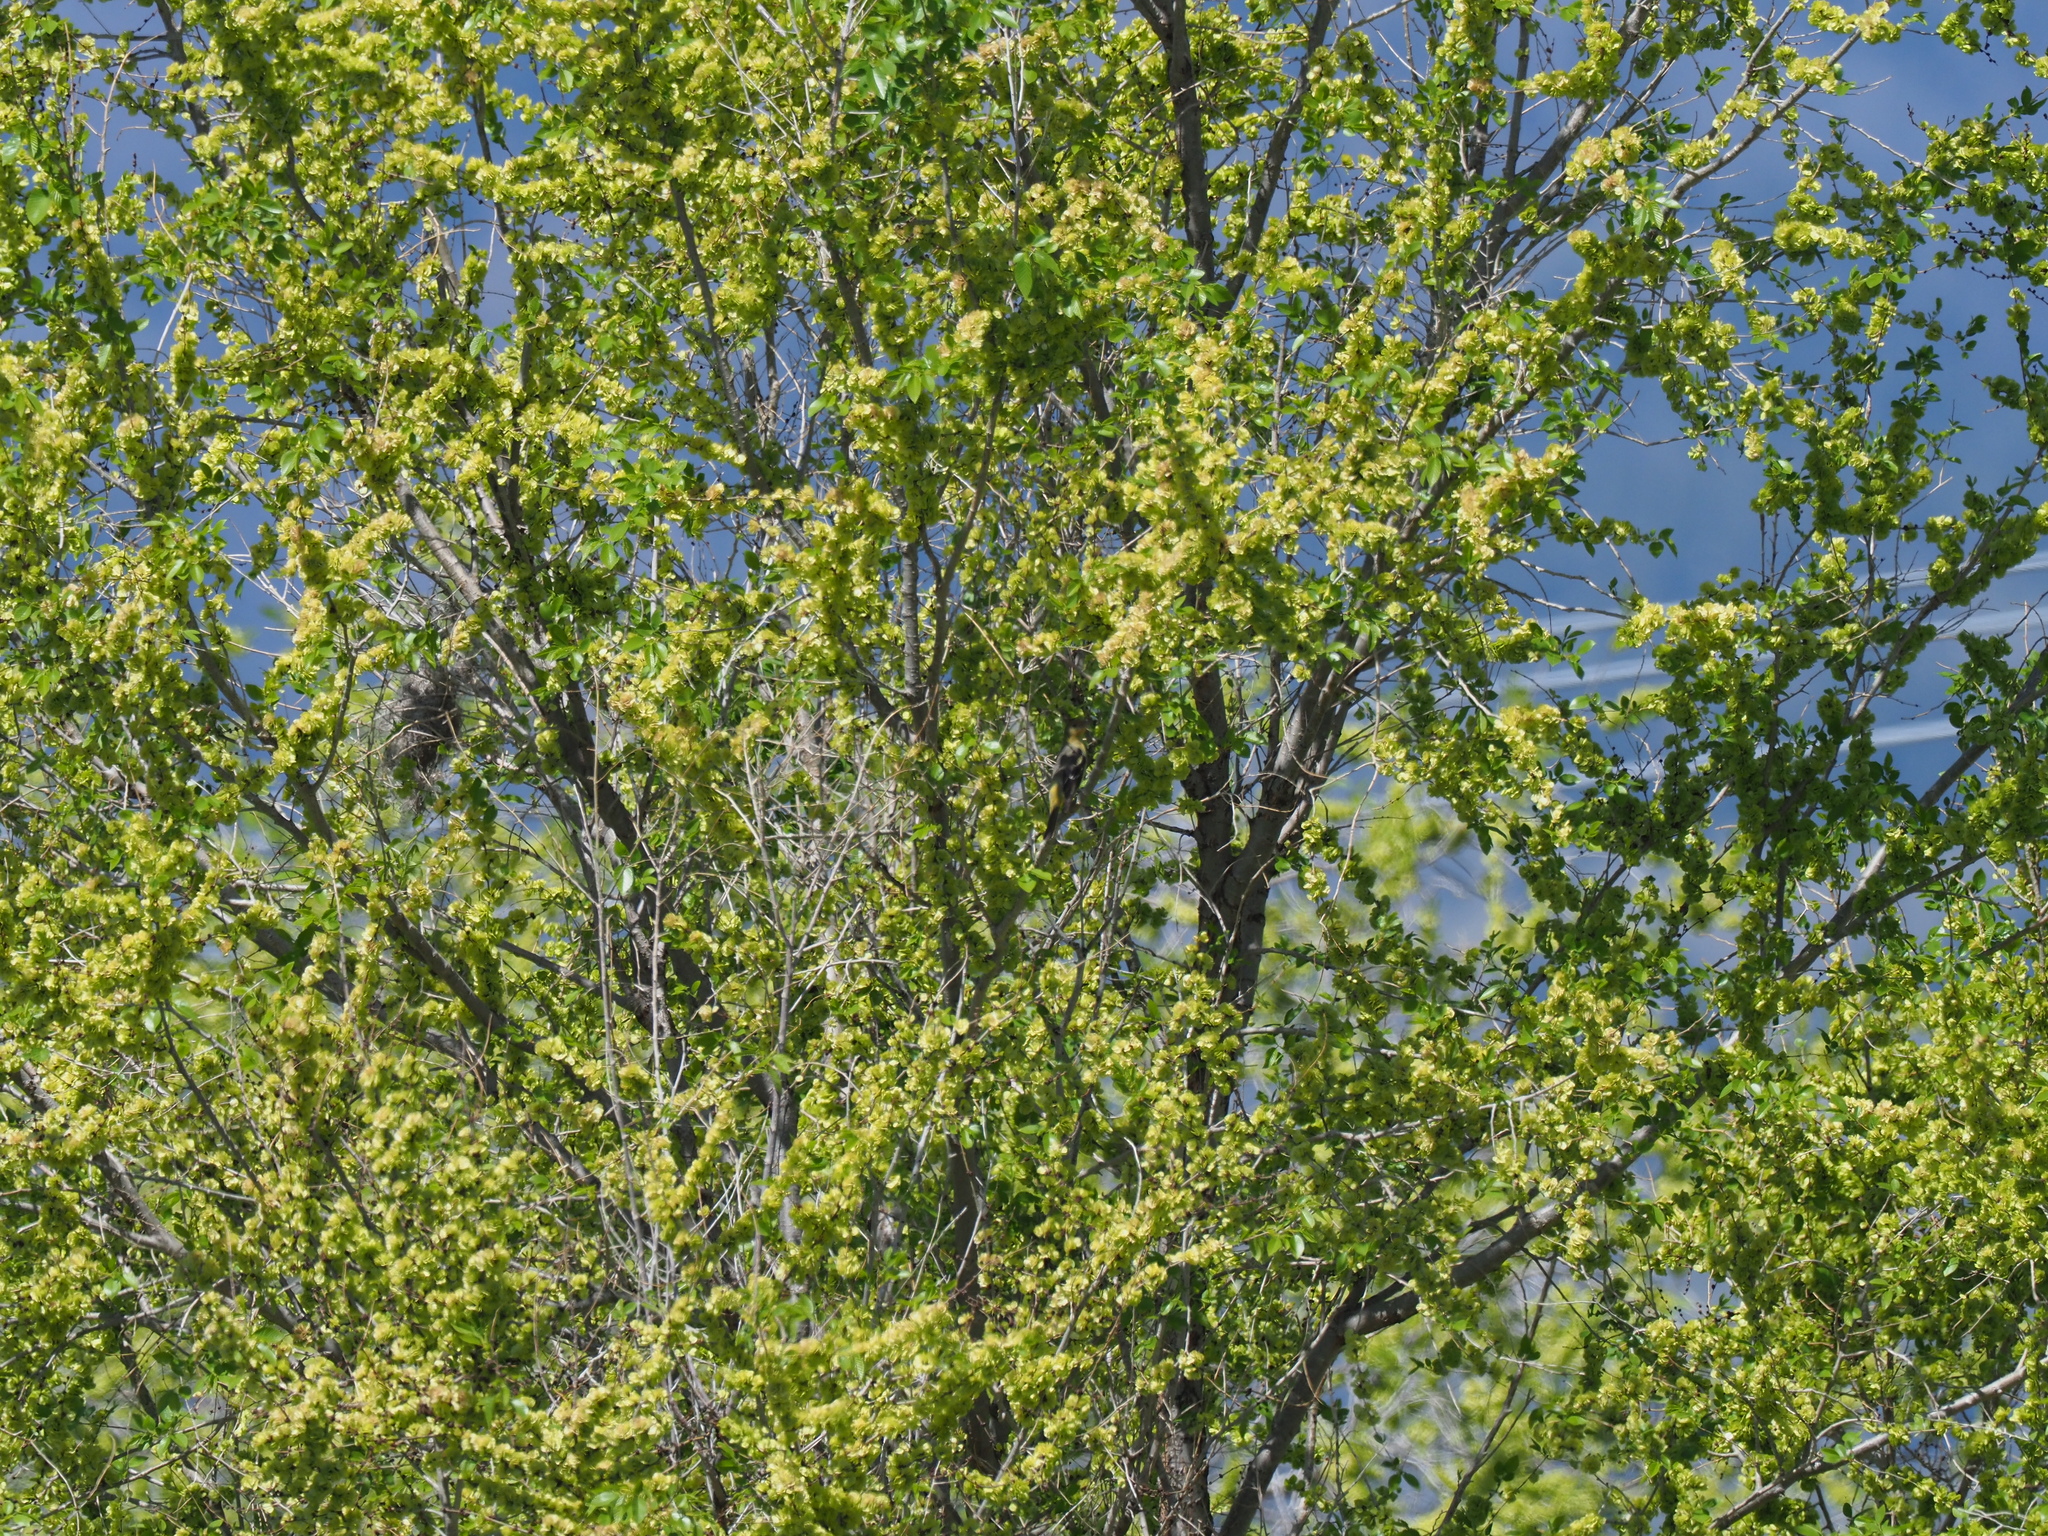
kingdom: Animalia
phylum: Chordata
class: Aves
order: Passeriformes
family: Cardinalidae
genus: Piranga
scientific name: Piranga ludoviciana
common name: Western tanager
